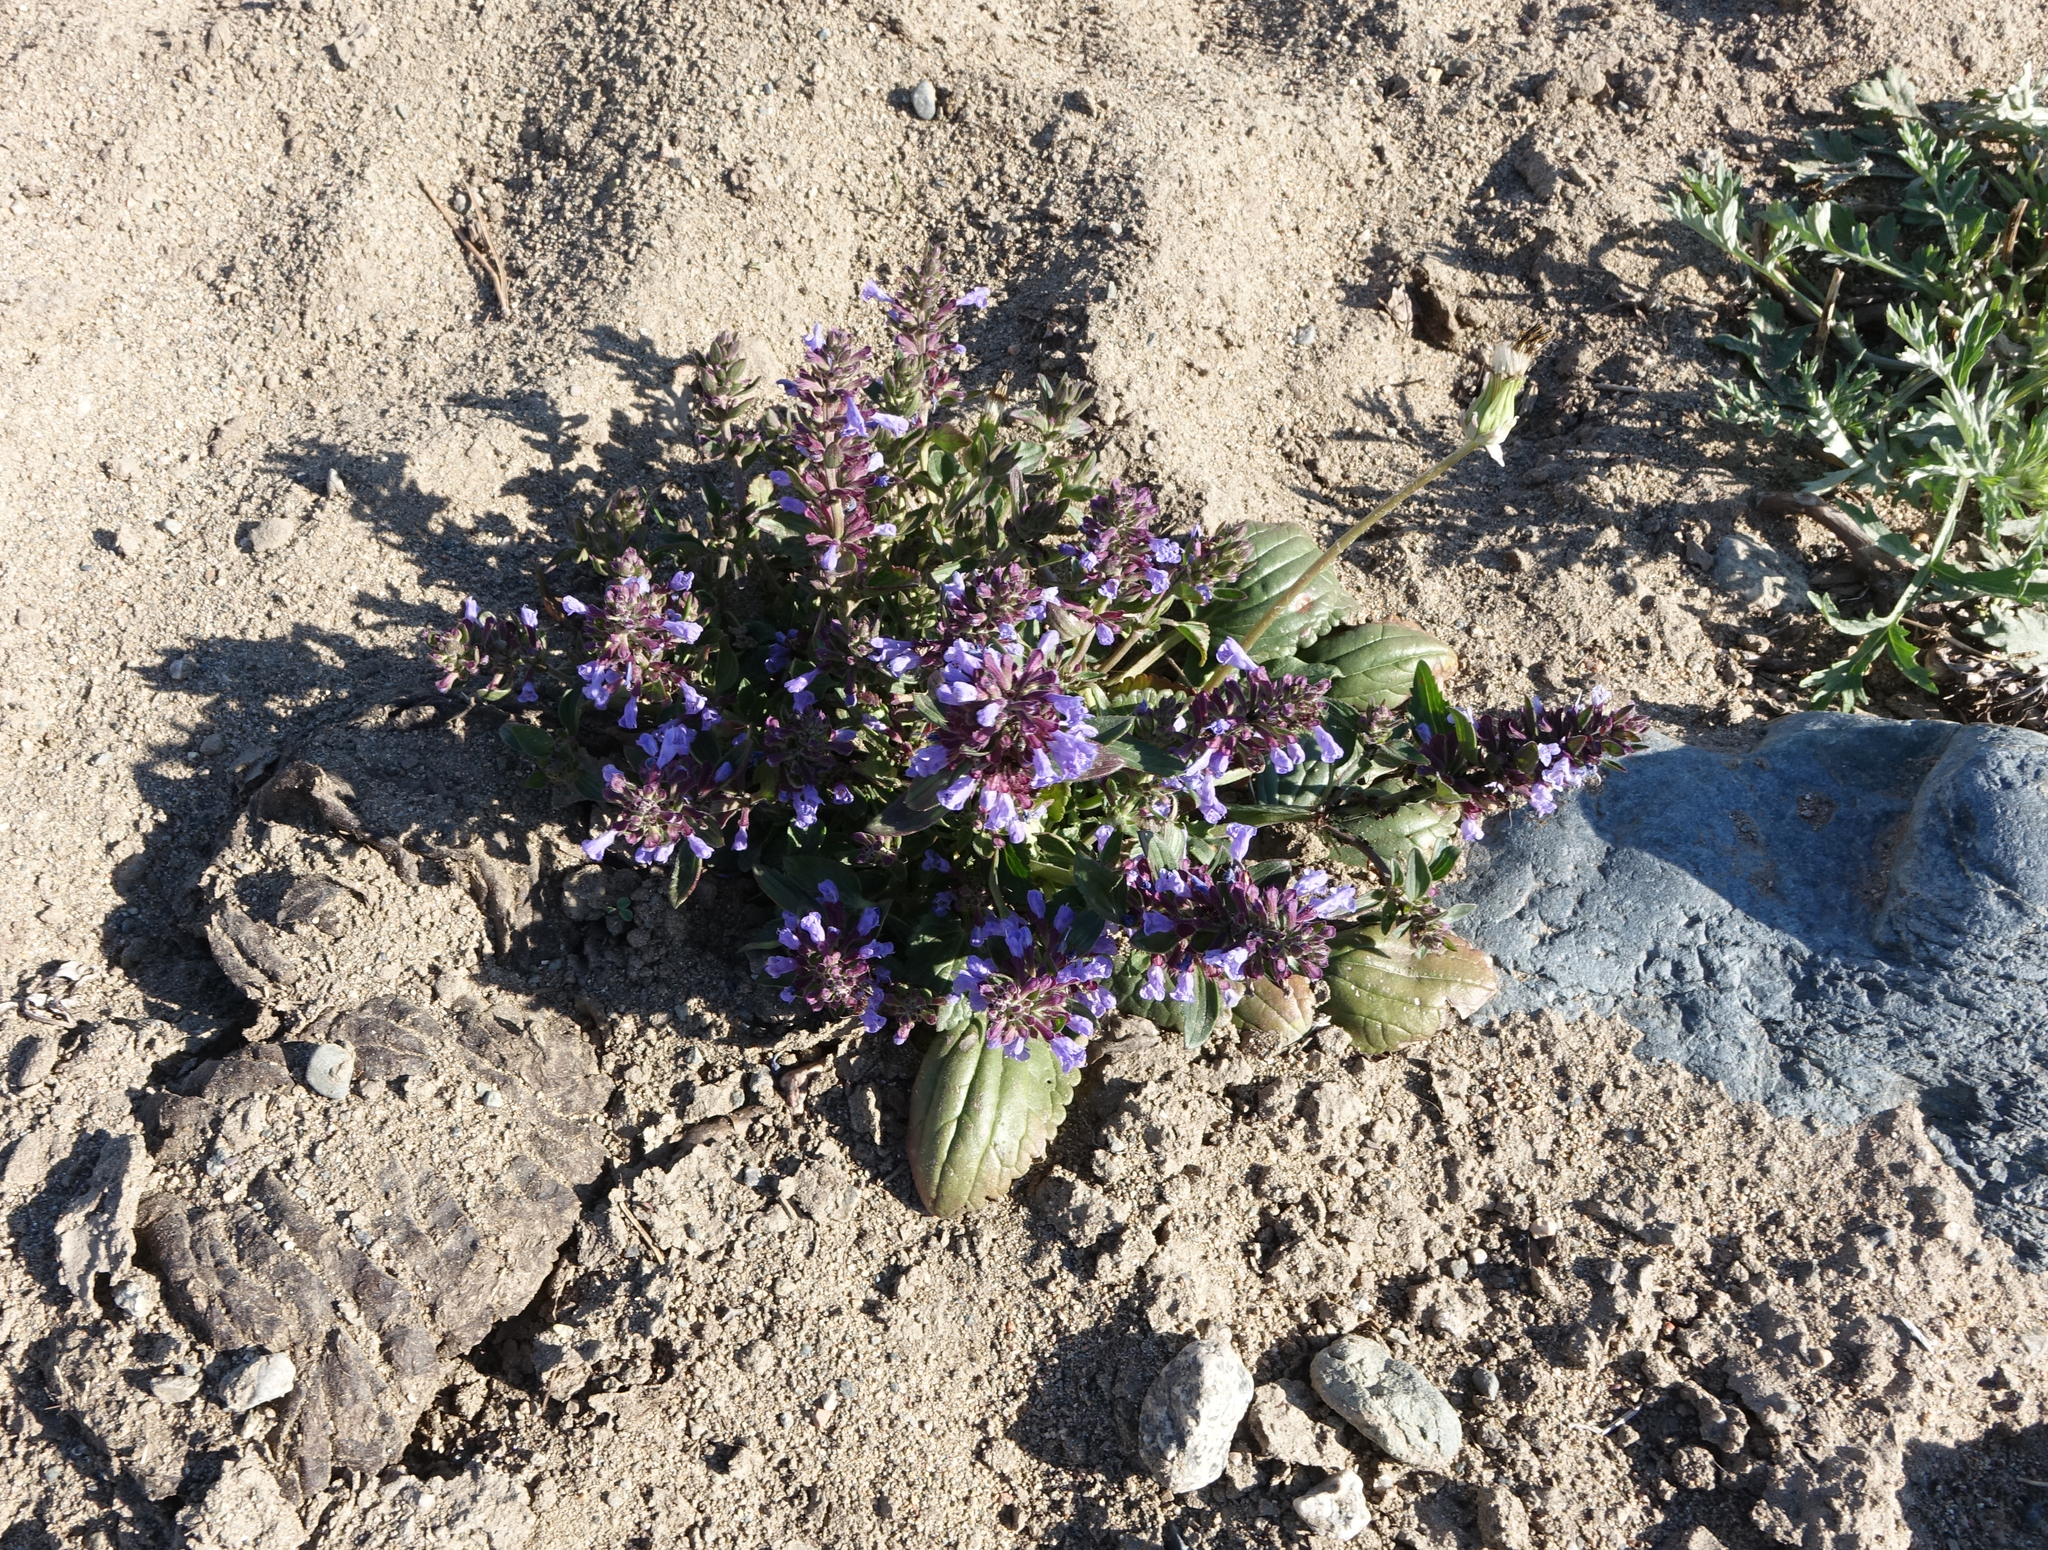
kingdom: Plantae
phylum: Tracheophyta
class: Magnoliopsida
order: Lamiales
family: Lamiaceae
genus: Dracocephalum
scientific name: Dracocephalum nutans
